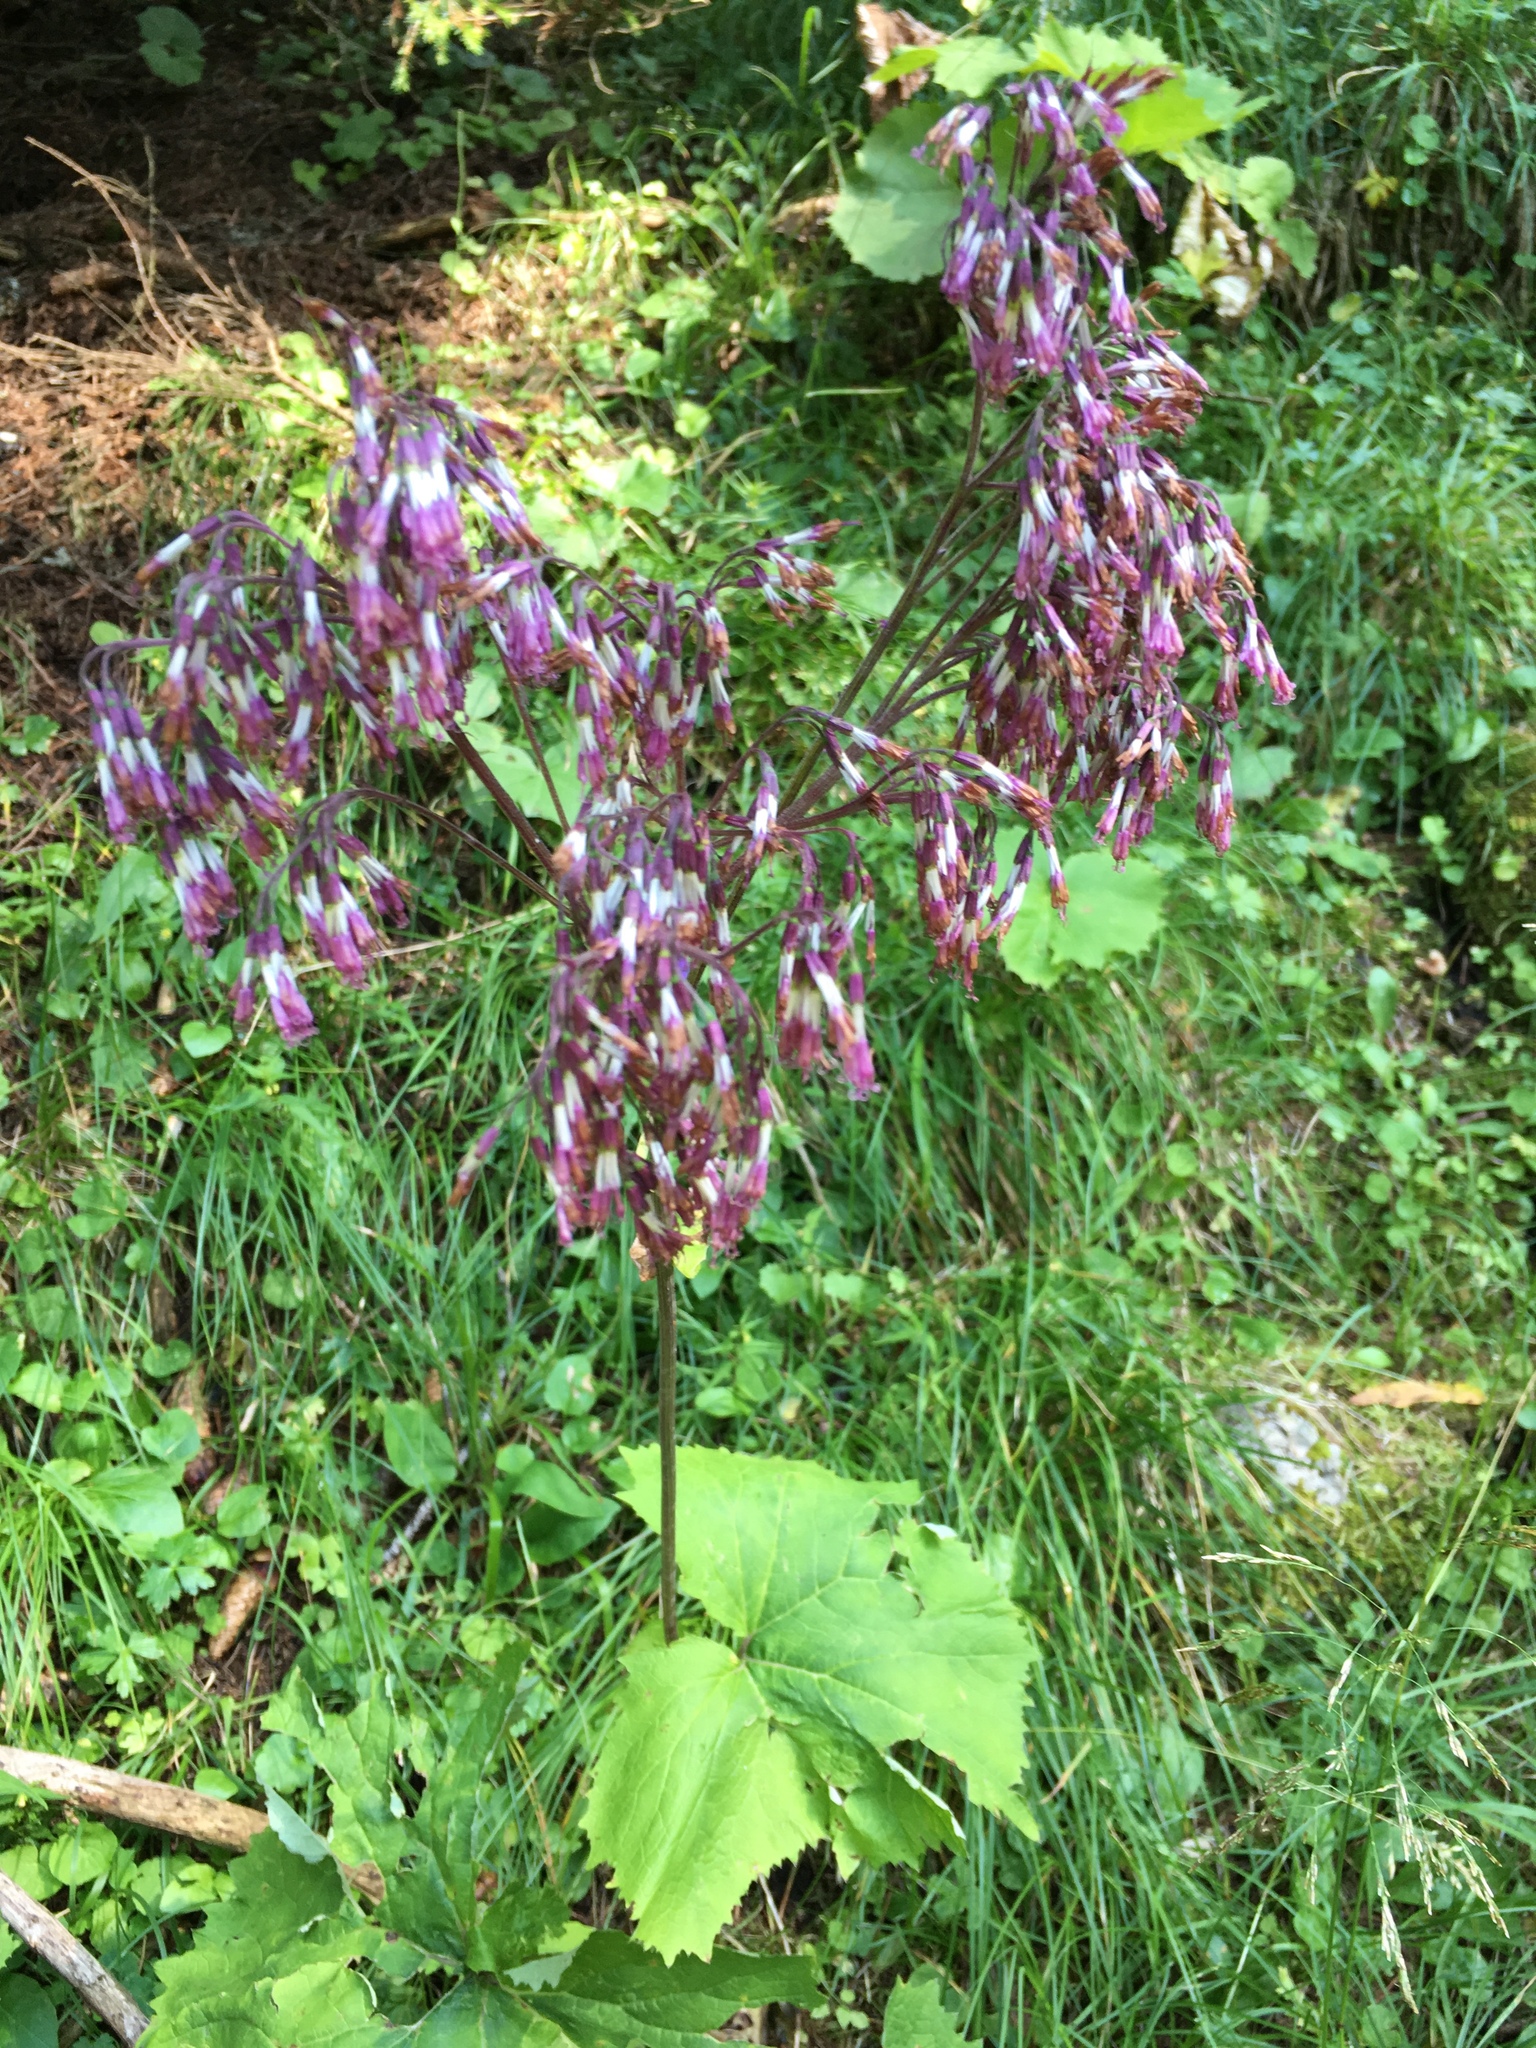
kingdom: Plantae
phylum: Tracheophyta
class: Magnoliopsida
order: Asterales
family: Asteraceae
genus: Adenostyles
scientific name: Adenostyles alliariae
